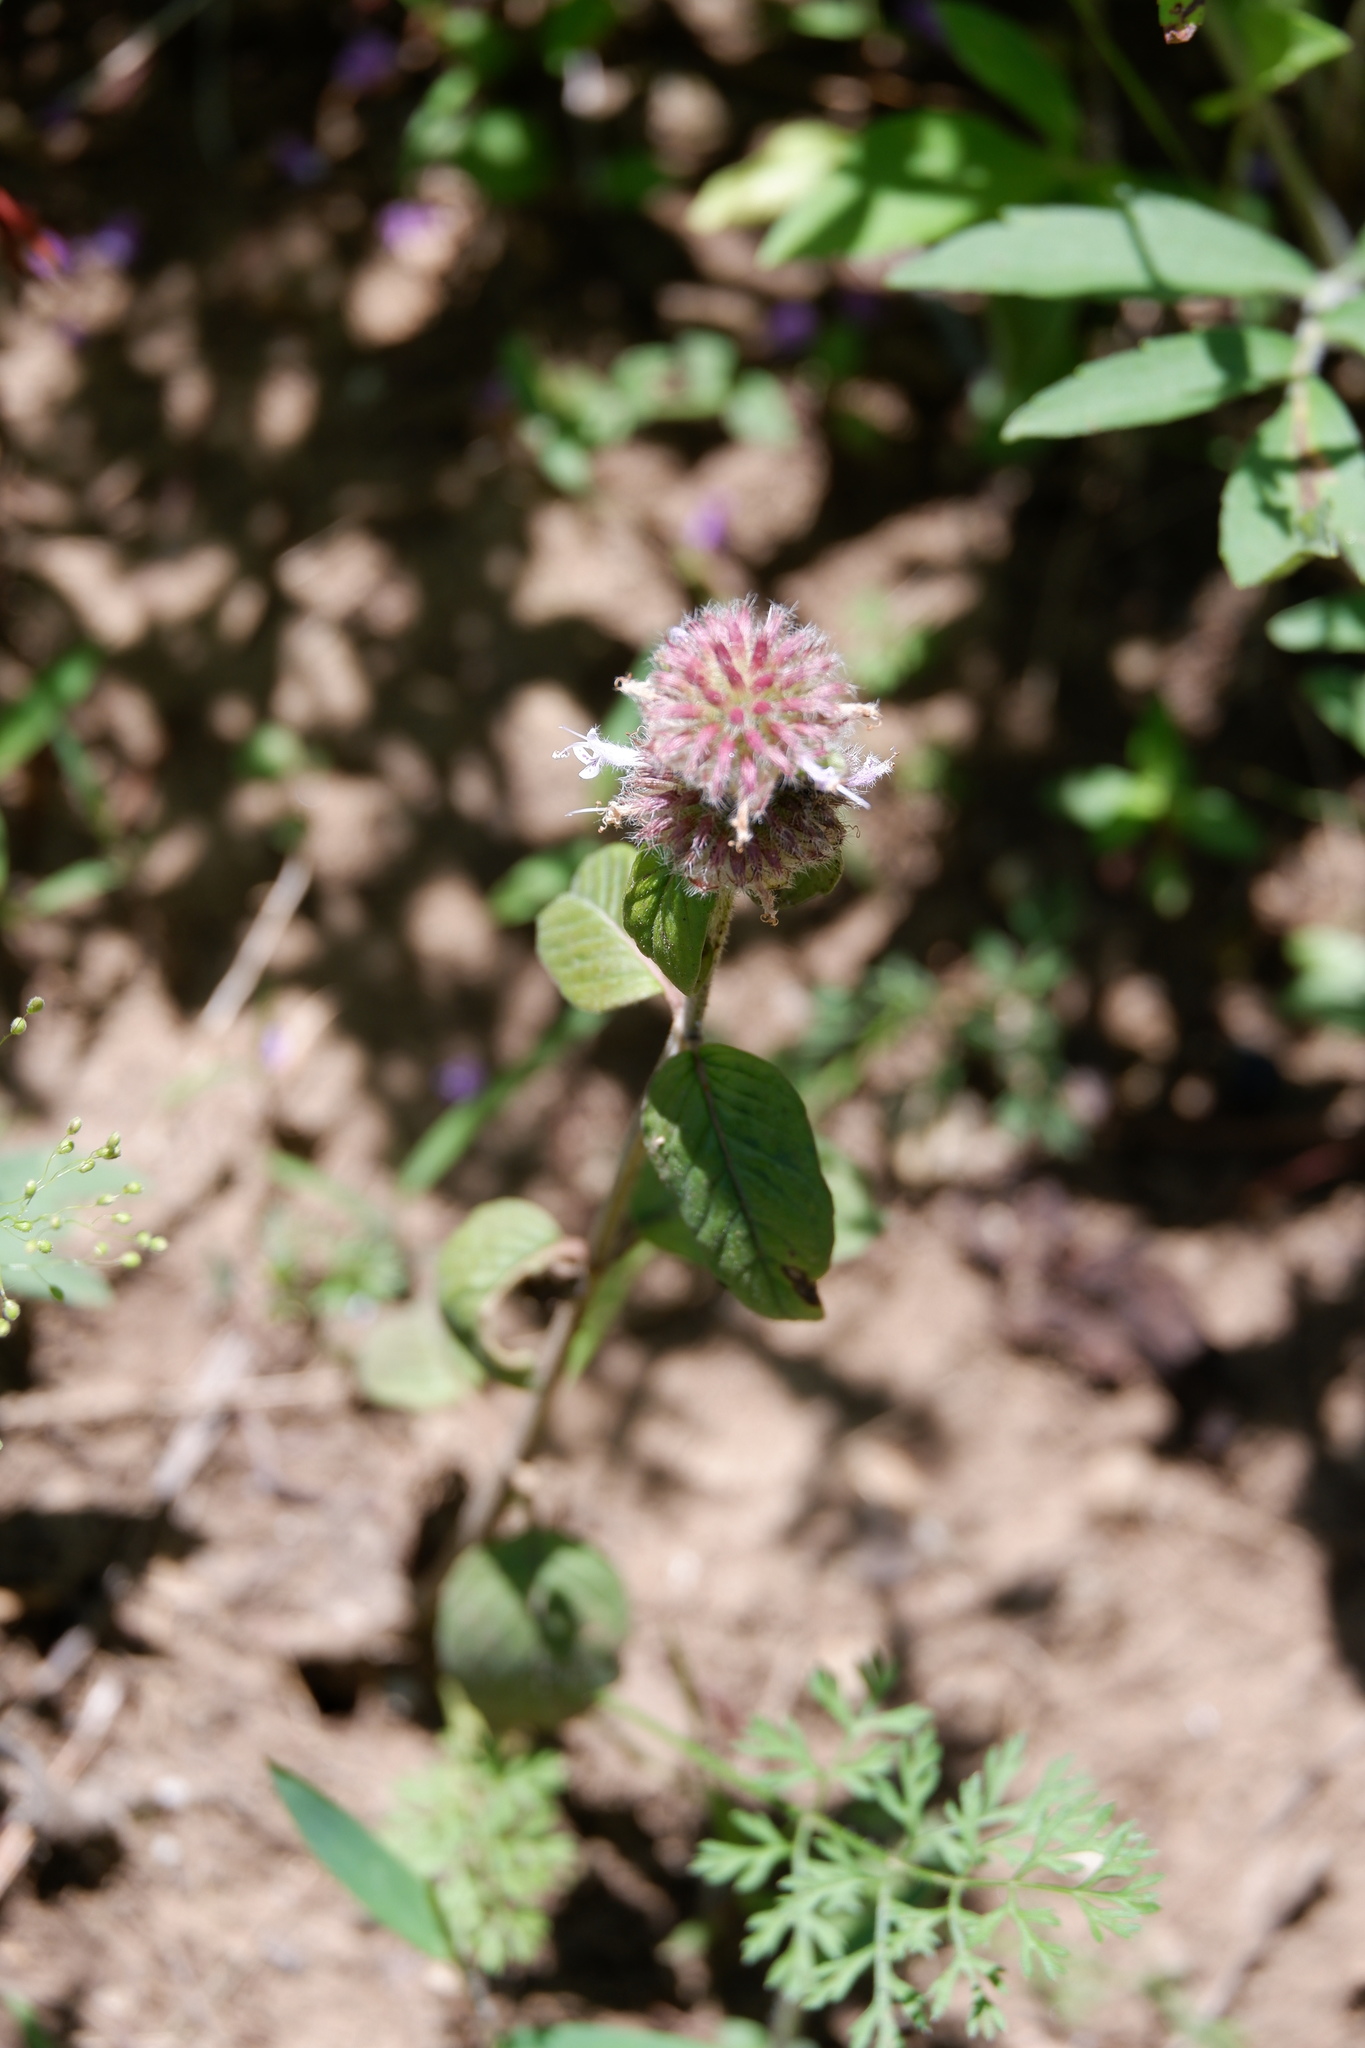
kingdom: Plantae
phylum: Tracheophyta
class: Magnoliopsida
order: Lamiales
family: Lamiaceae
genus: Blephilia
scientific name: Blephilia ciliata
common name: Downy blephilia
